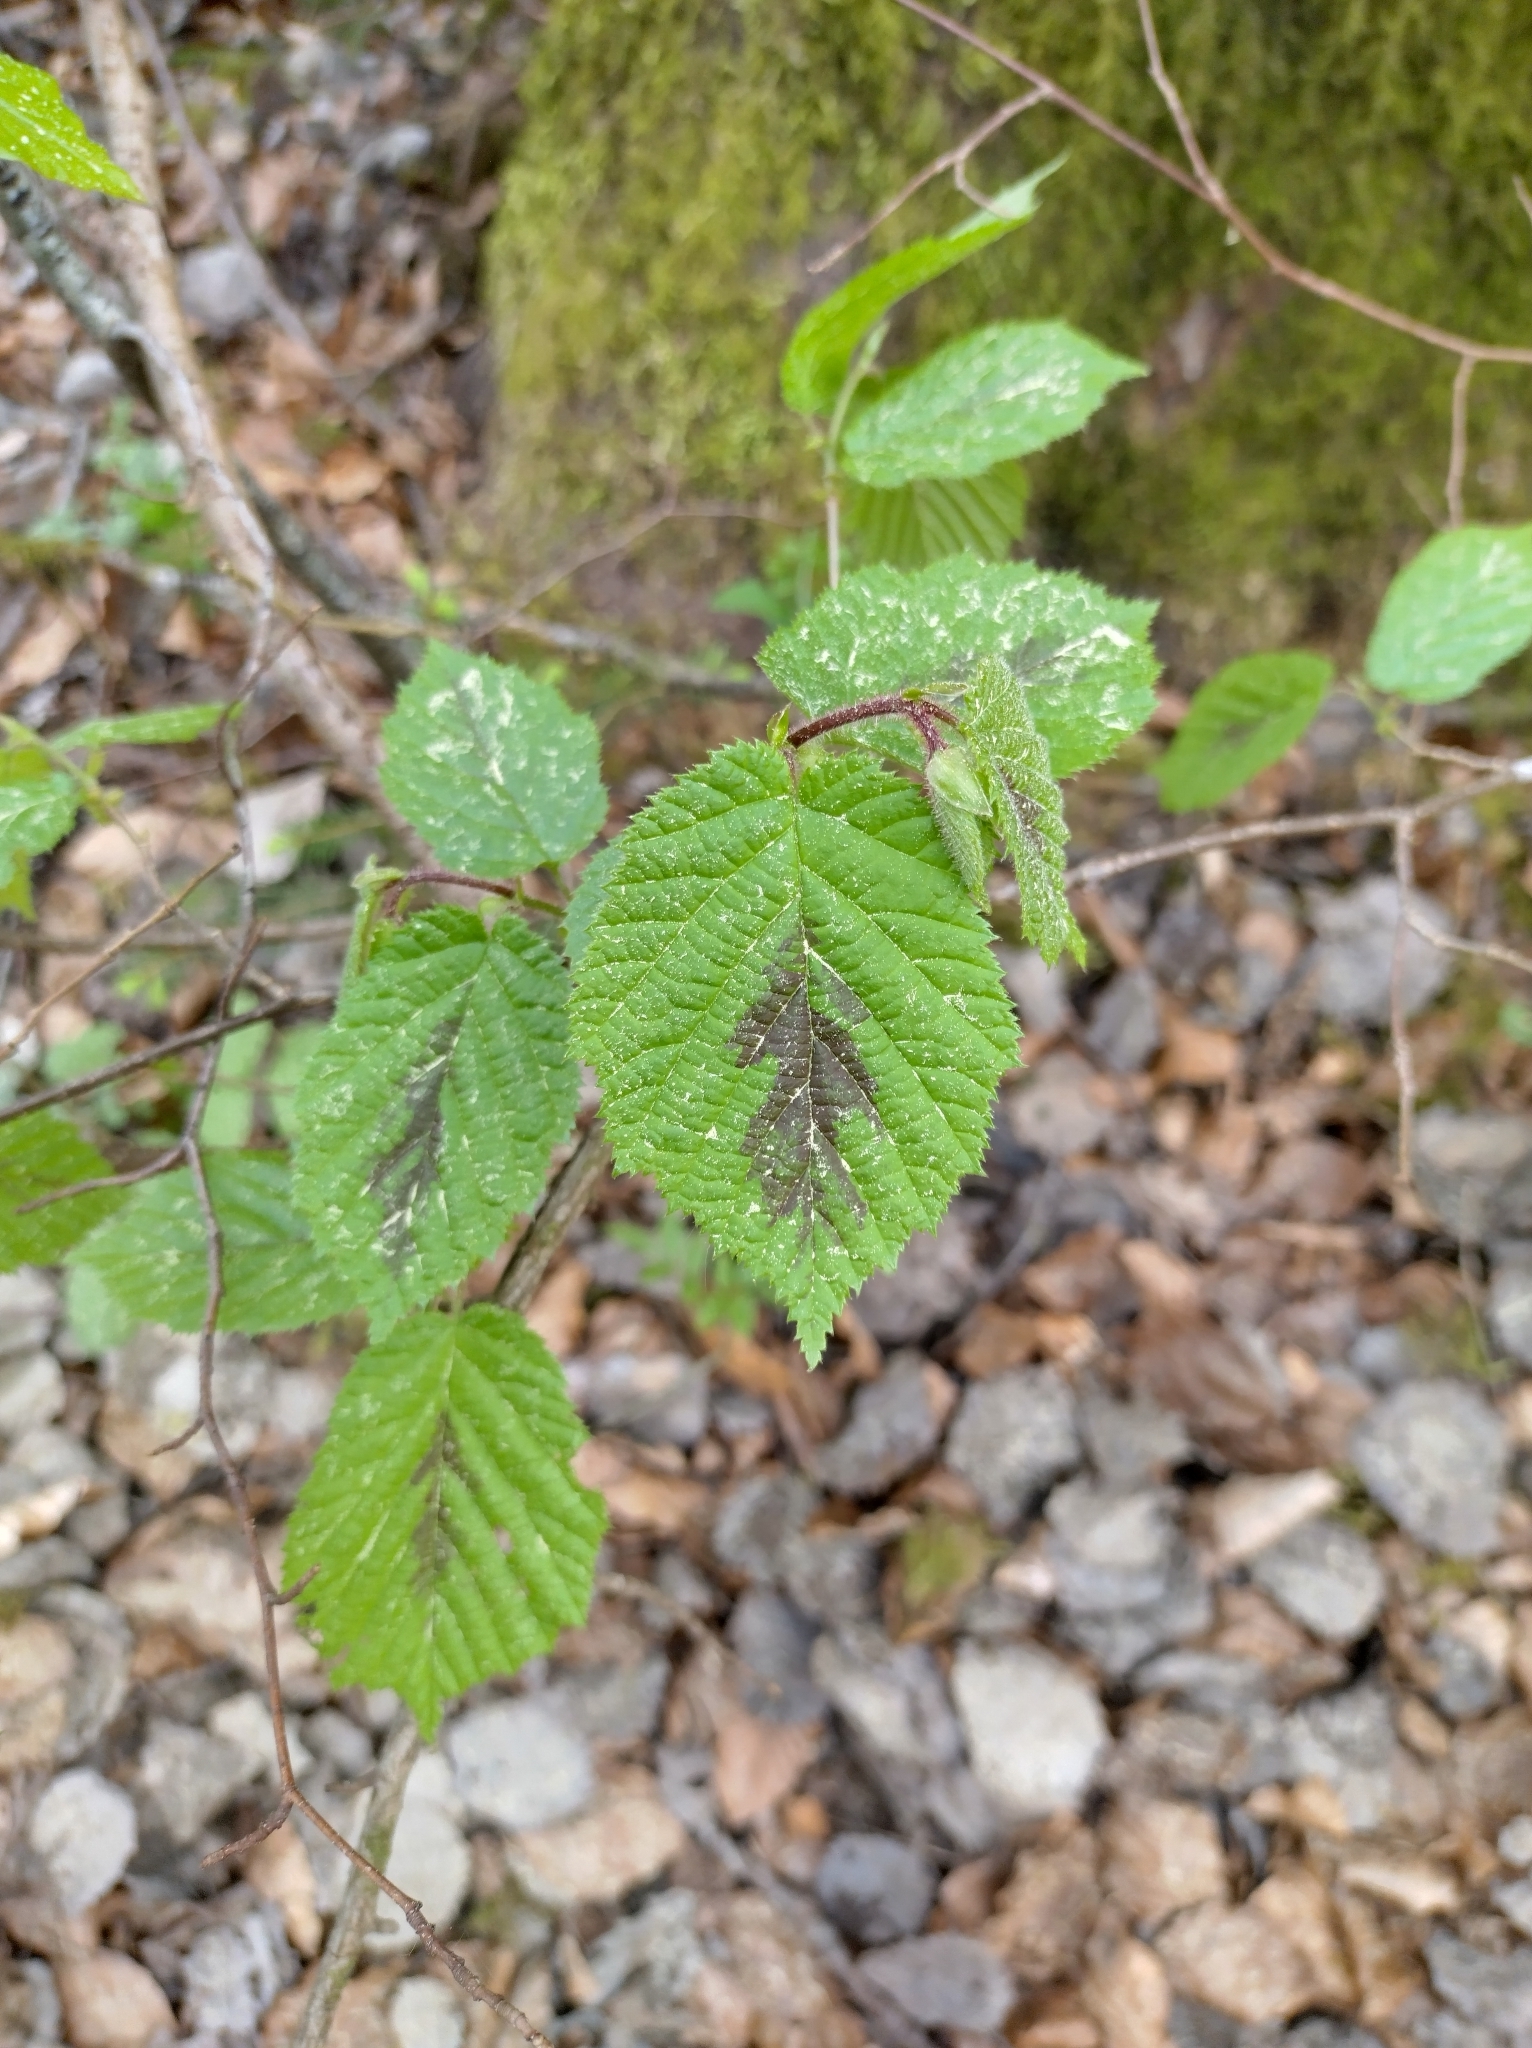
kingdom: Plantae
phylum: Tracheophyta
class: Magnoliopsida
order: Fagales
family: Betulaceae
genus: Corylus
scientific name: Corylus avellana
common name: European hazel
